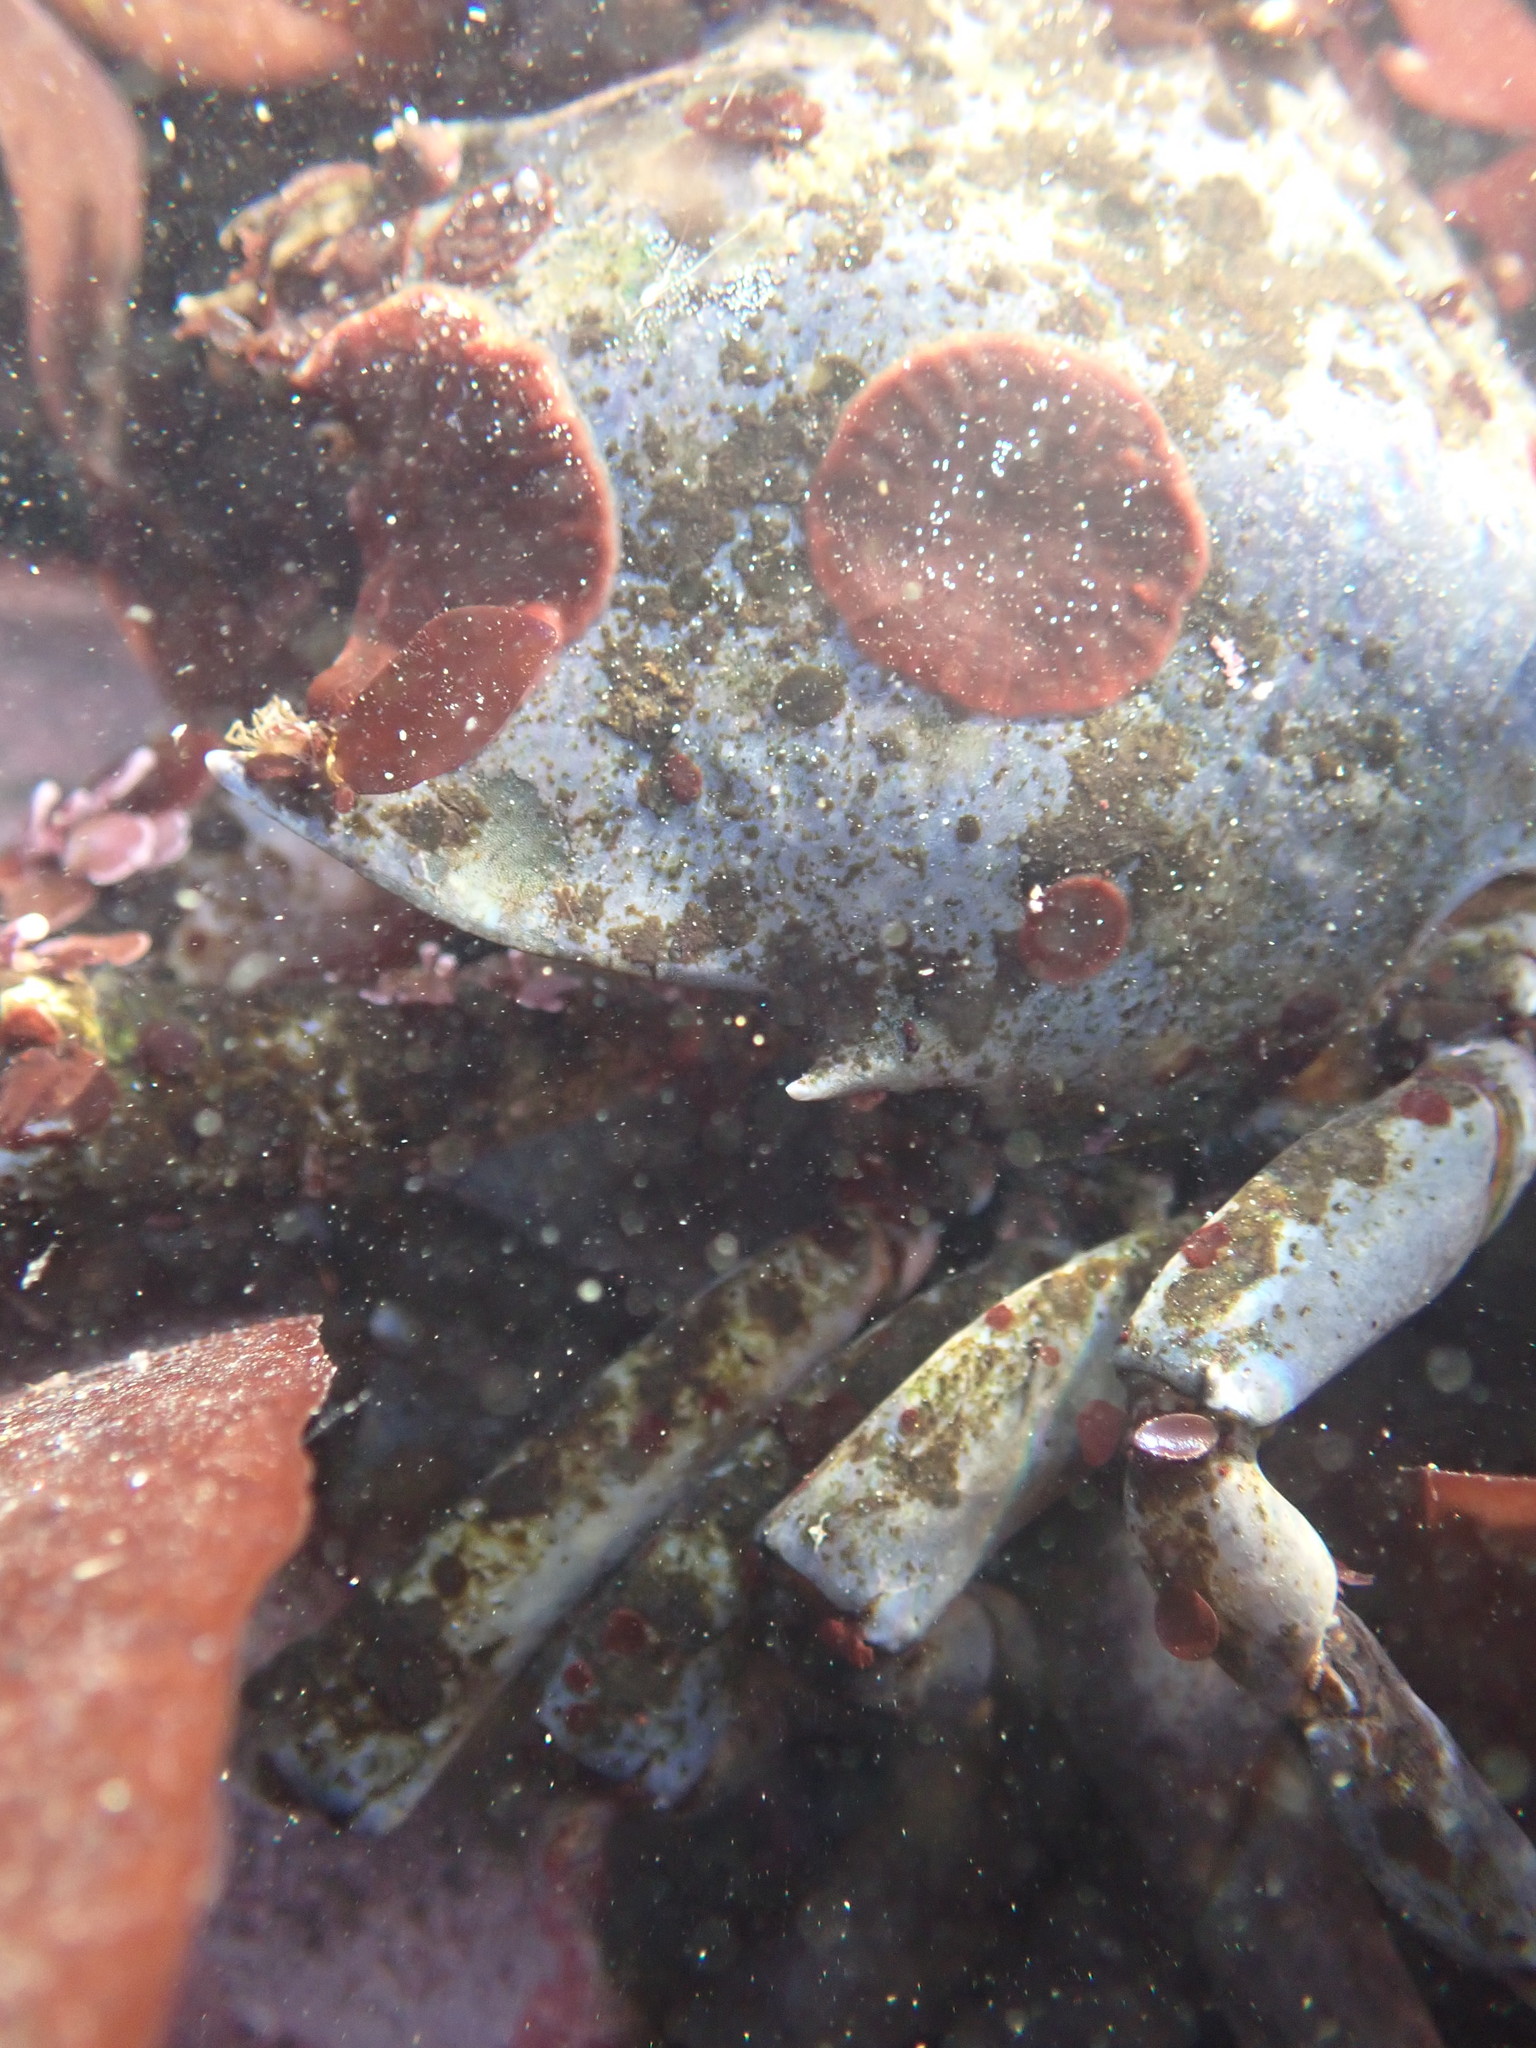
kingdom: Animalia
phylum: Arthropoda
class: Malacostraca
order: Decapoda
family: Epialtidae
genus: Pugettia
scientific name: Pugettia producta
